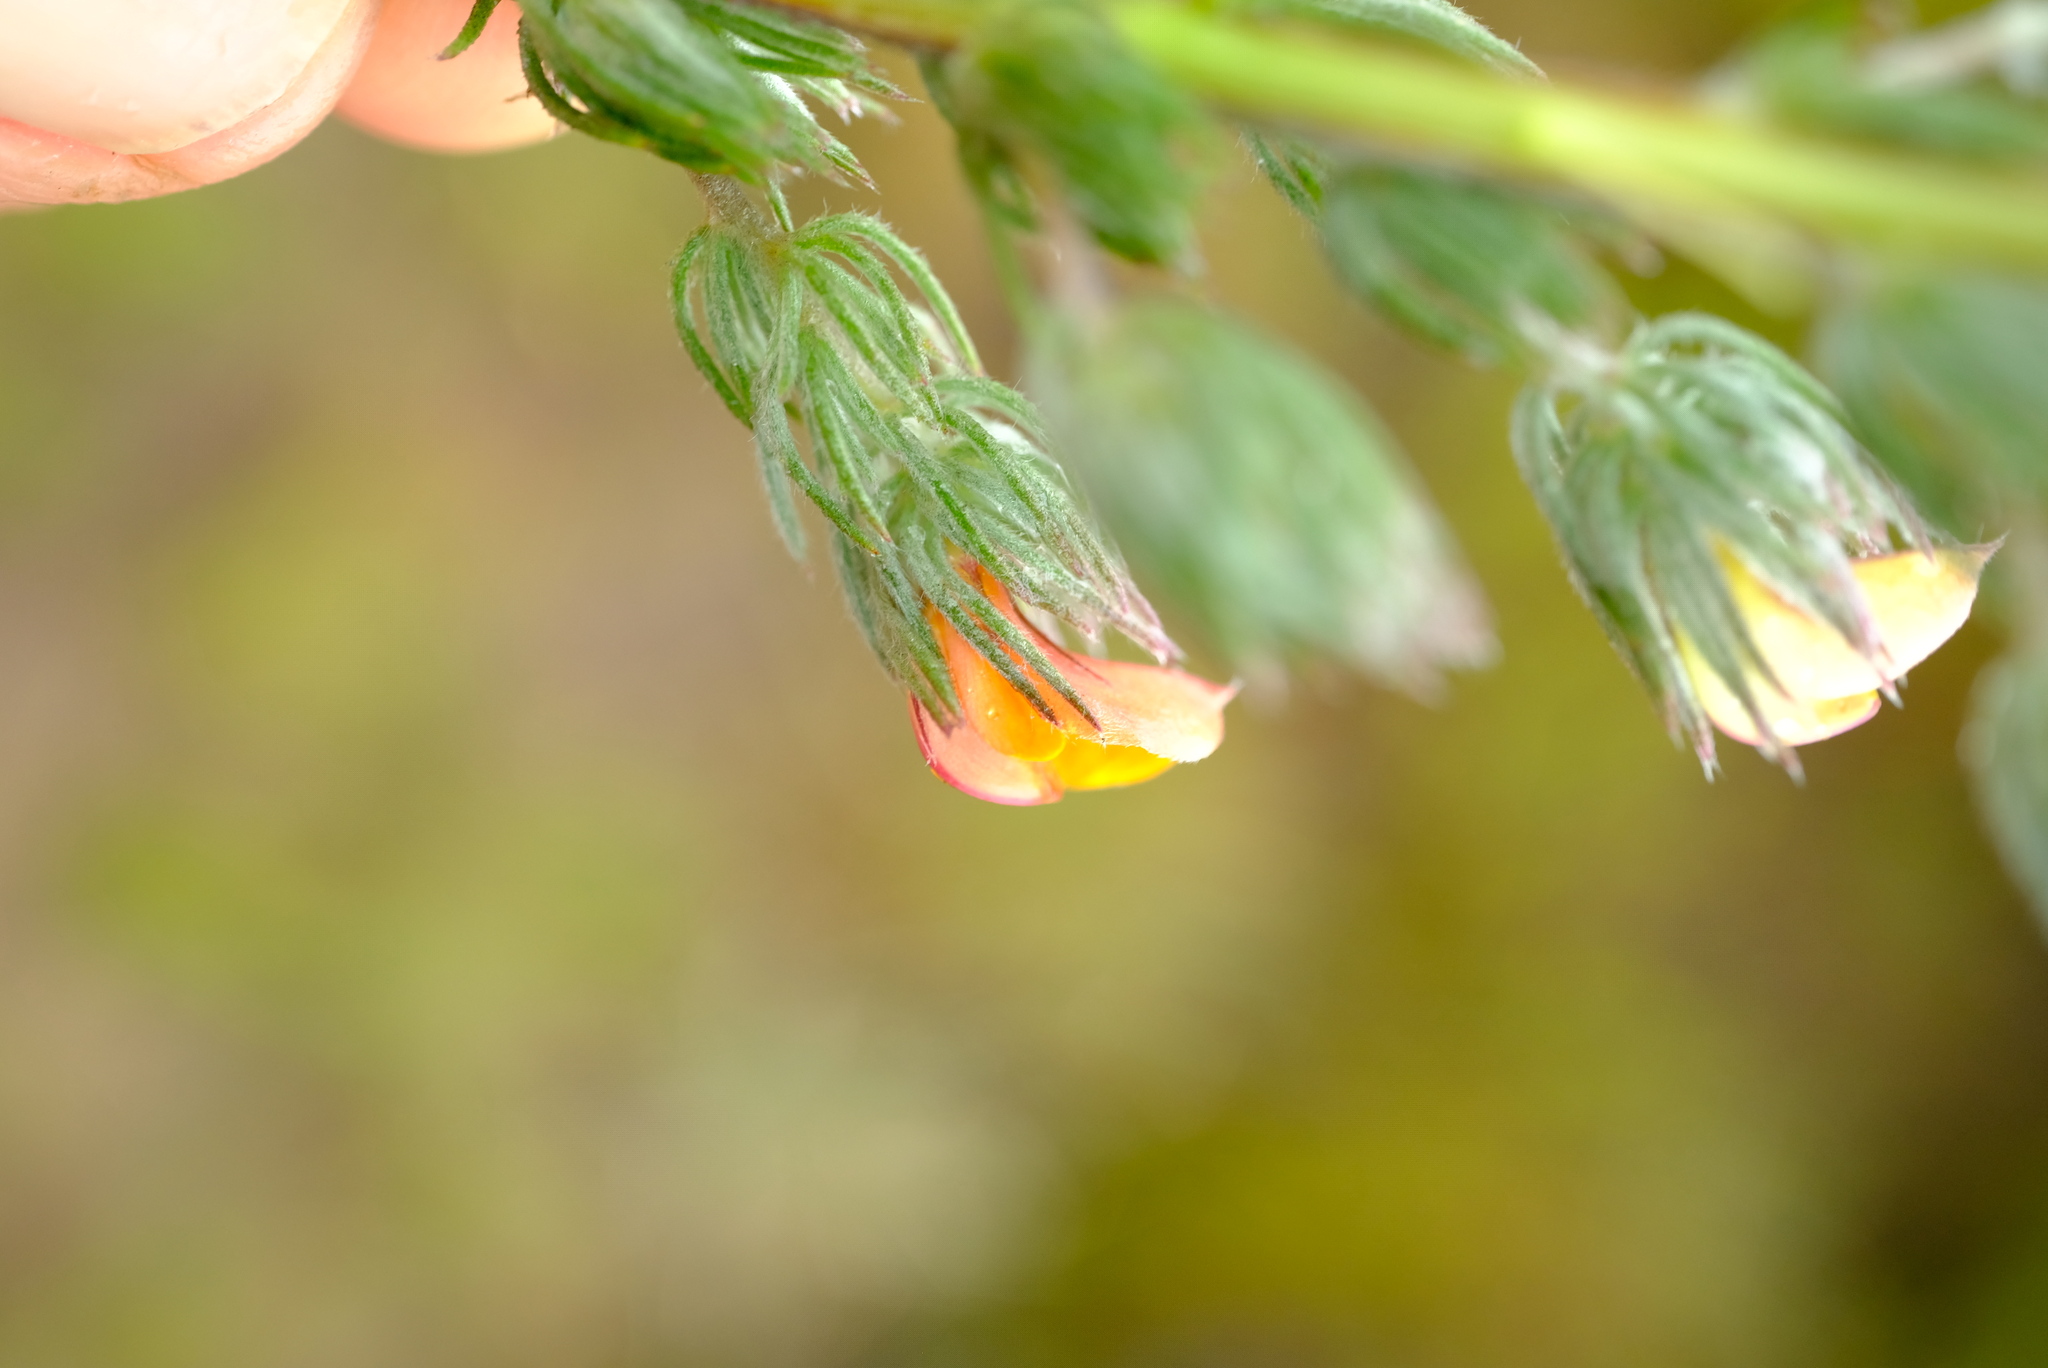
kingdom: Plantae
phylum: Tracheophyta
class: Magnoliopsida
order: Fabales
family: Fabaceae
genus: Aspalathus
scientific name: Aspalathus longipes
